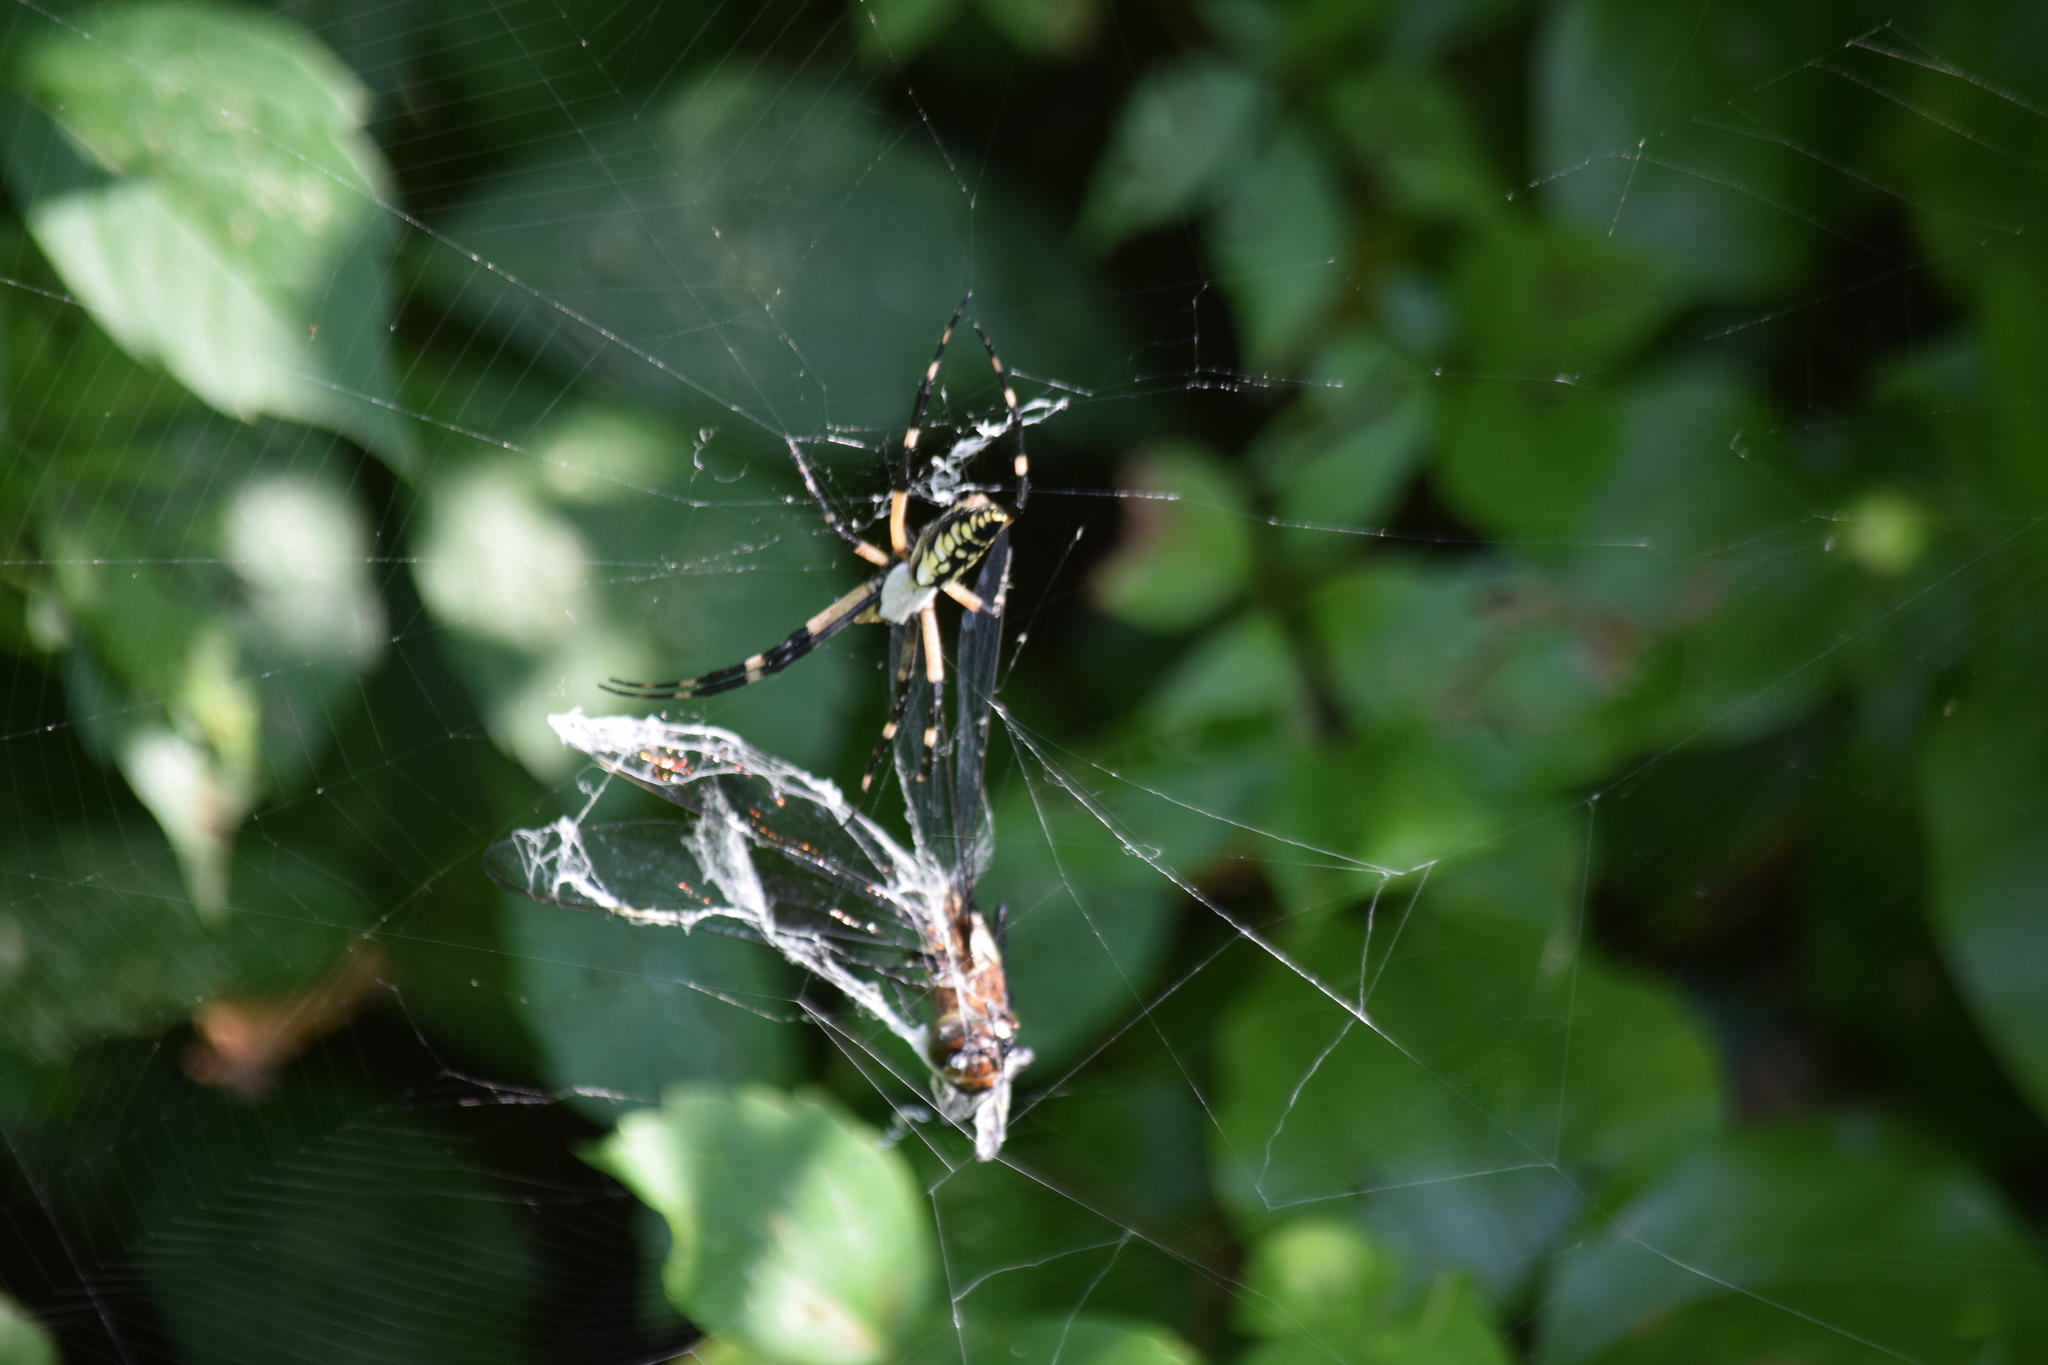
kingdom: Animalia
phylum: Arthropoda
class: Arachnida
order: Araneae
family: Araneidae
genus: Argiope
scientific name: Argiope aurantia
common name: Orb weavers
